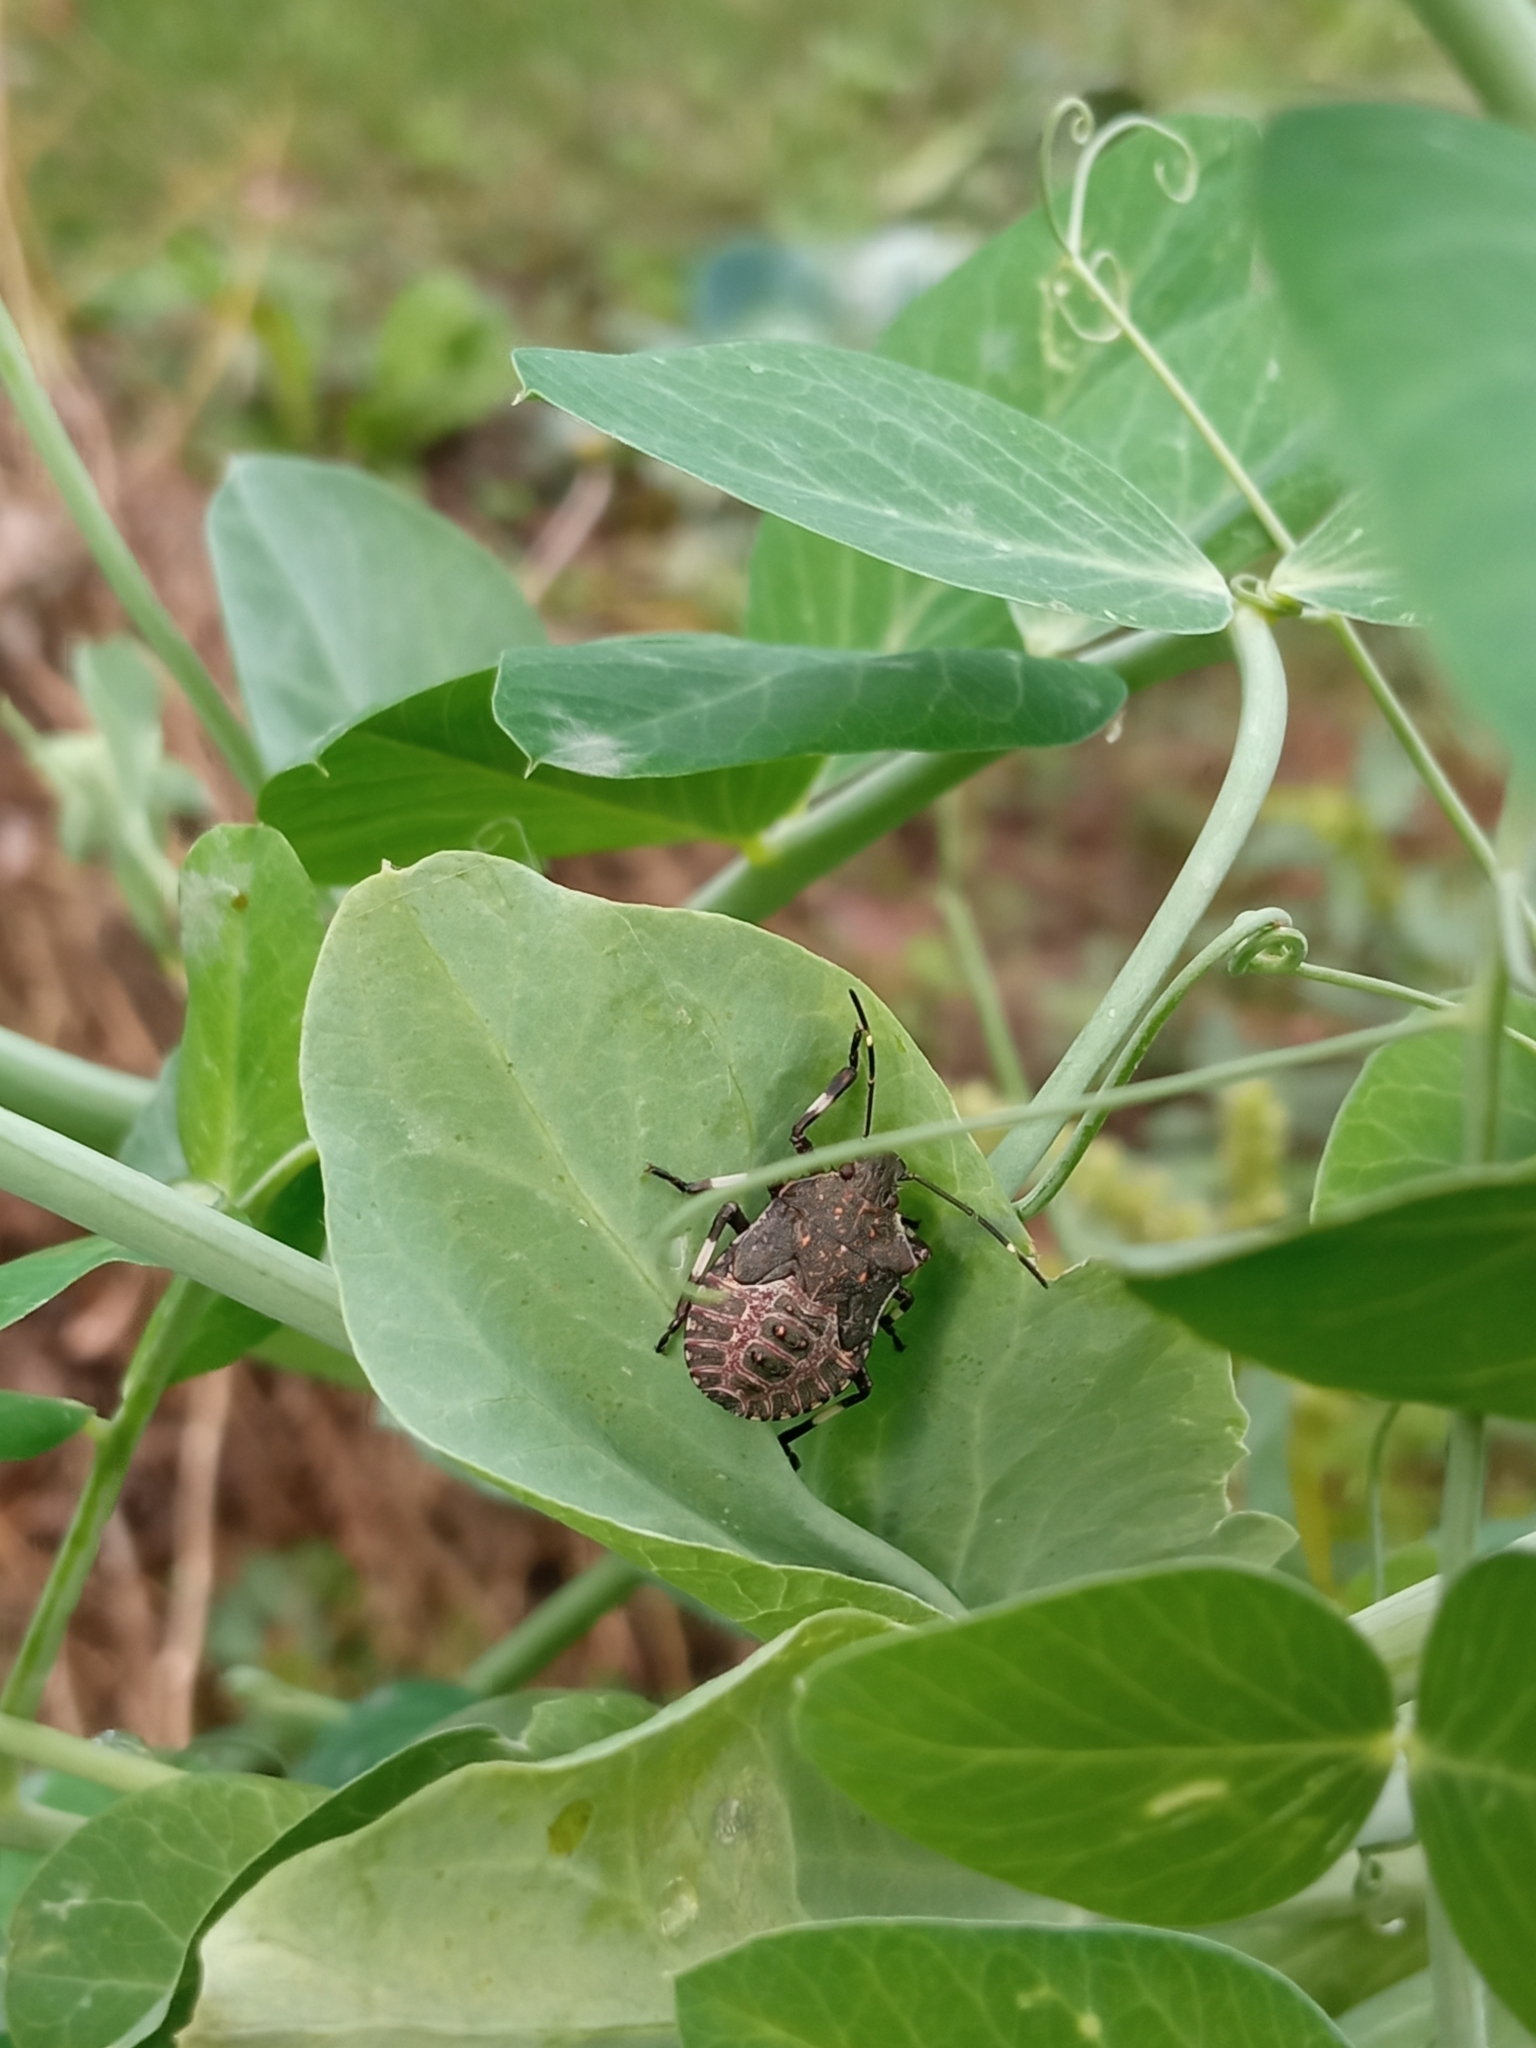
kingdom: Animalia
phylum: Arthropoda
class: Insecta
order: Hemiptera
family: Pentatomidae
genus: Halyomorpha
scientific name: Halyomorpha halys
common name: Brown marmorated stink bug
